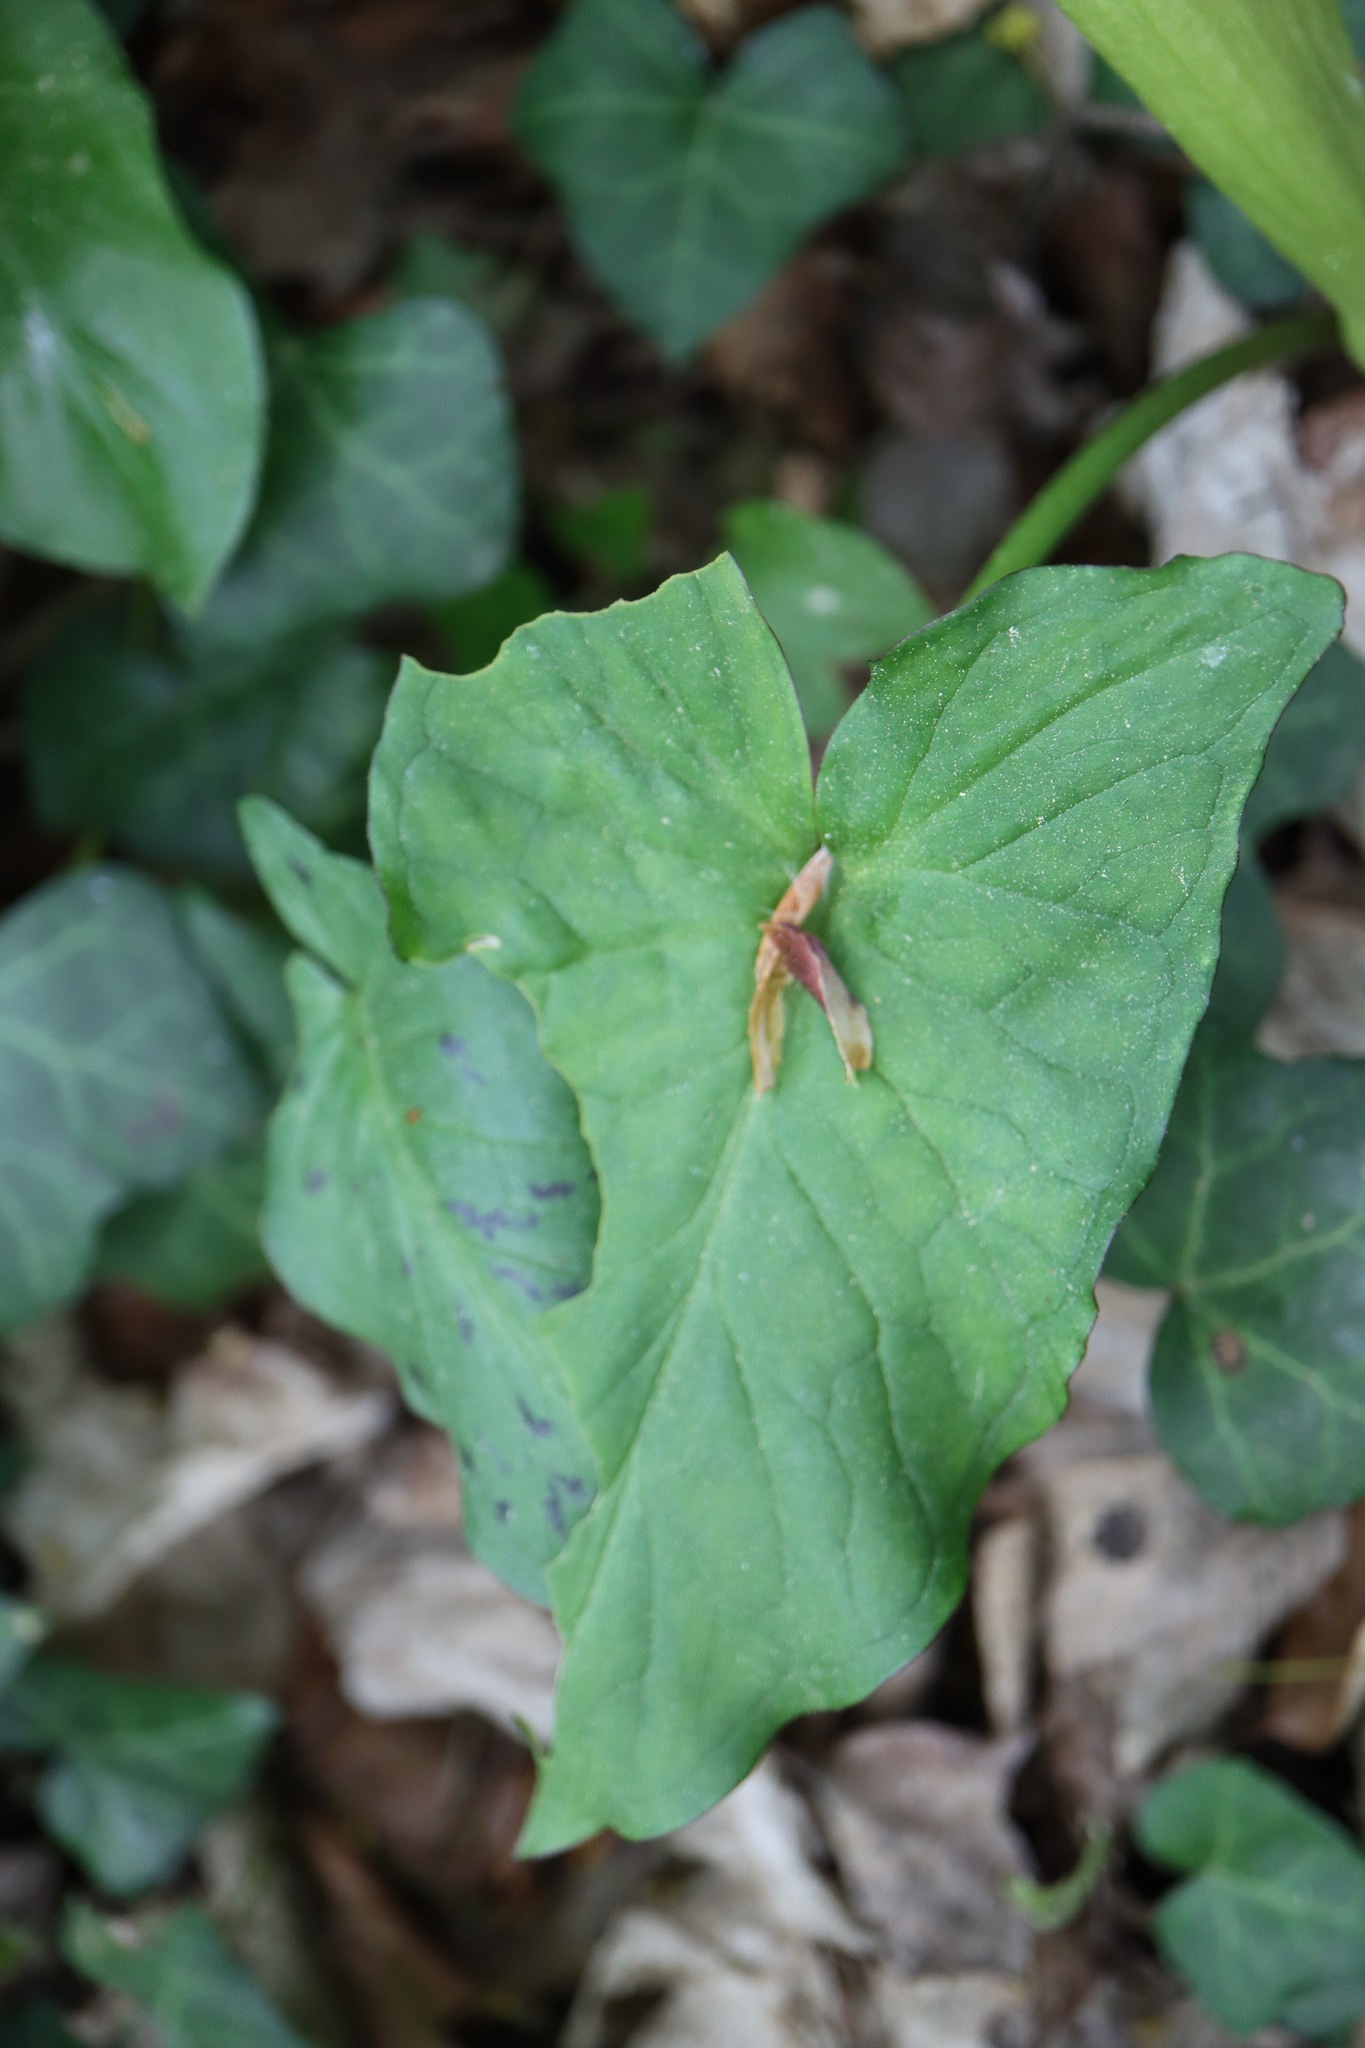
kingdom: Plantae
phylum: Tracheophyta
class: Liliopsida
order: Alismatales
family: Araceae
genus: Arum
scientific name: Arum maculatum
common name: Lords-and-ladies
